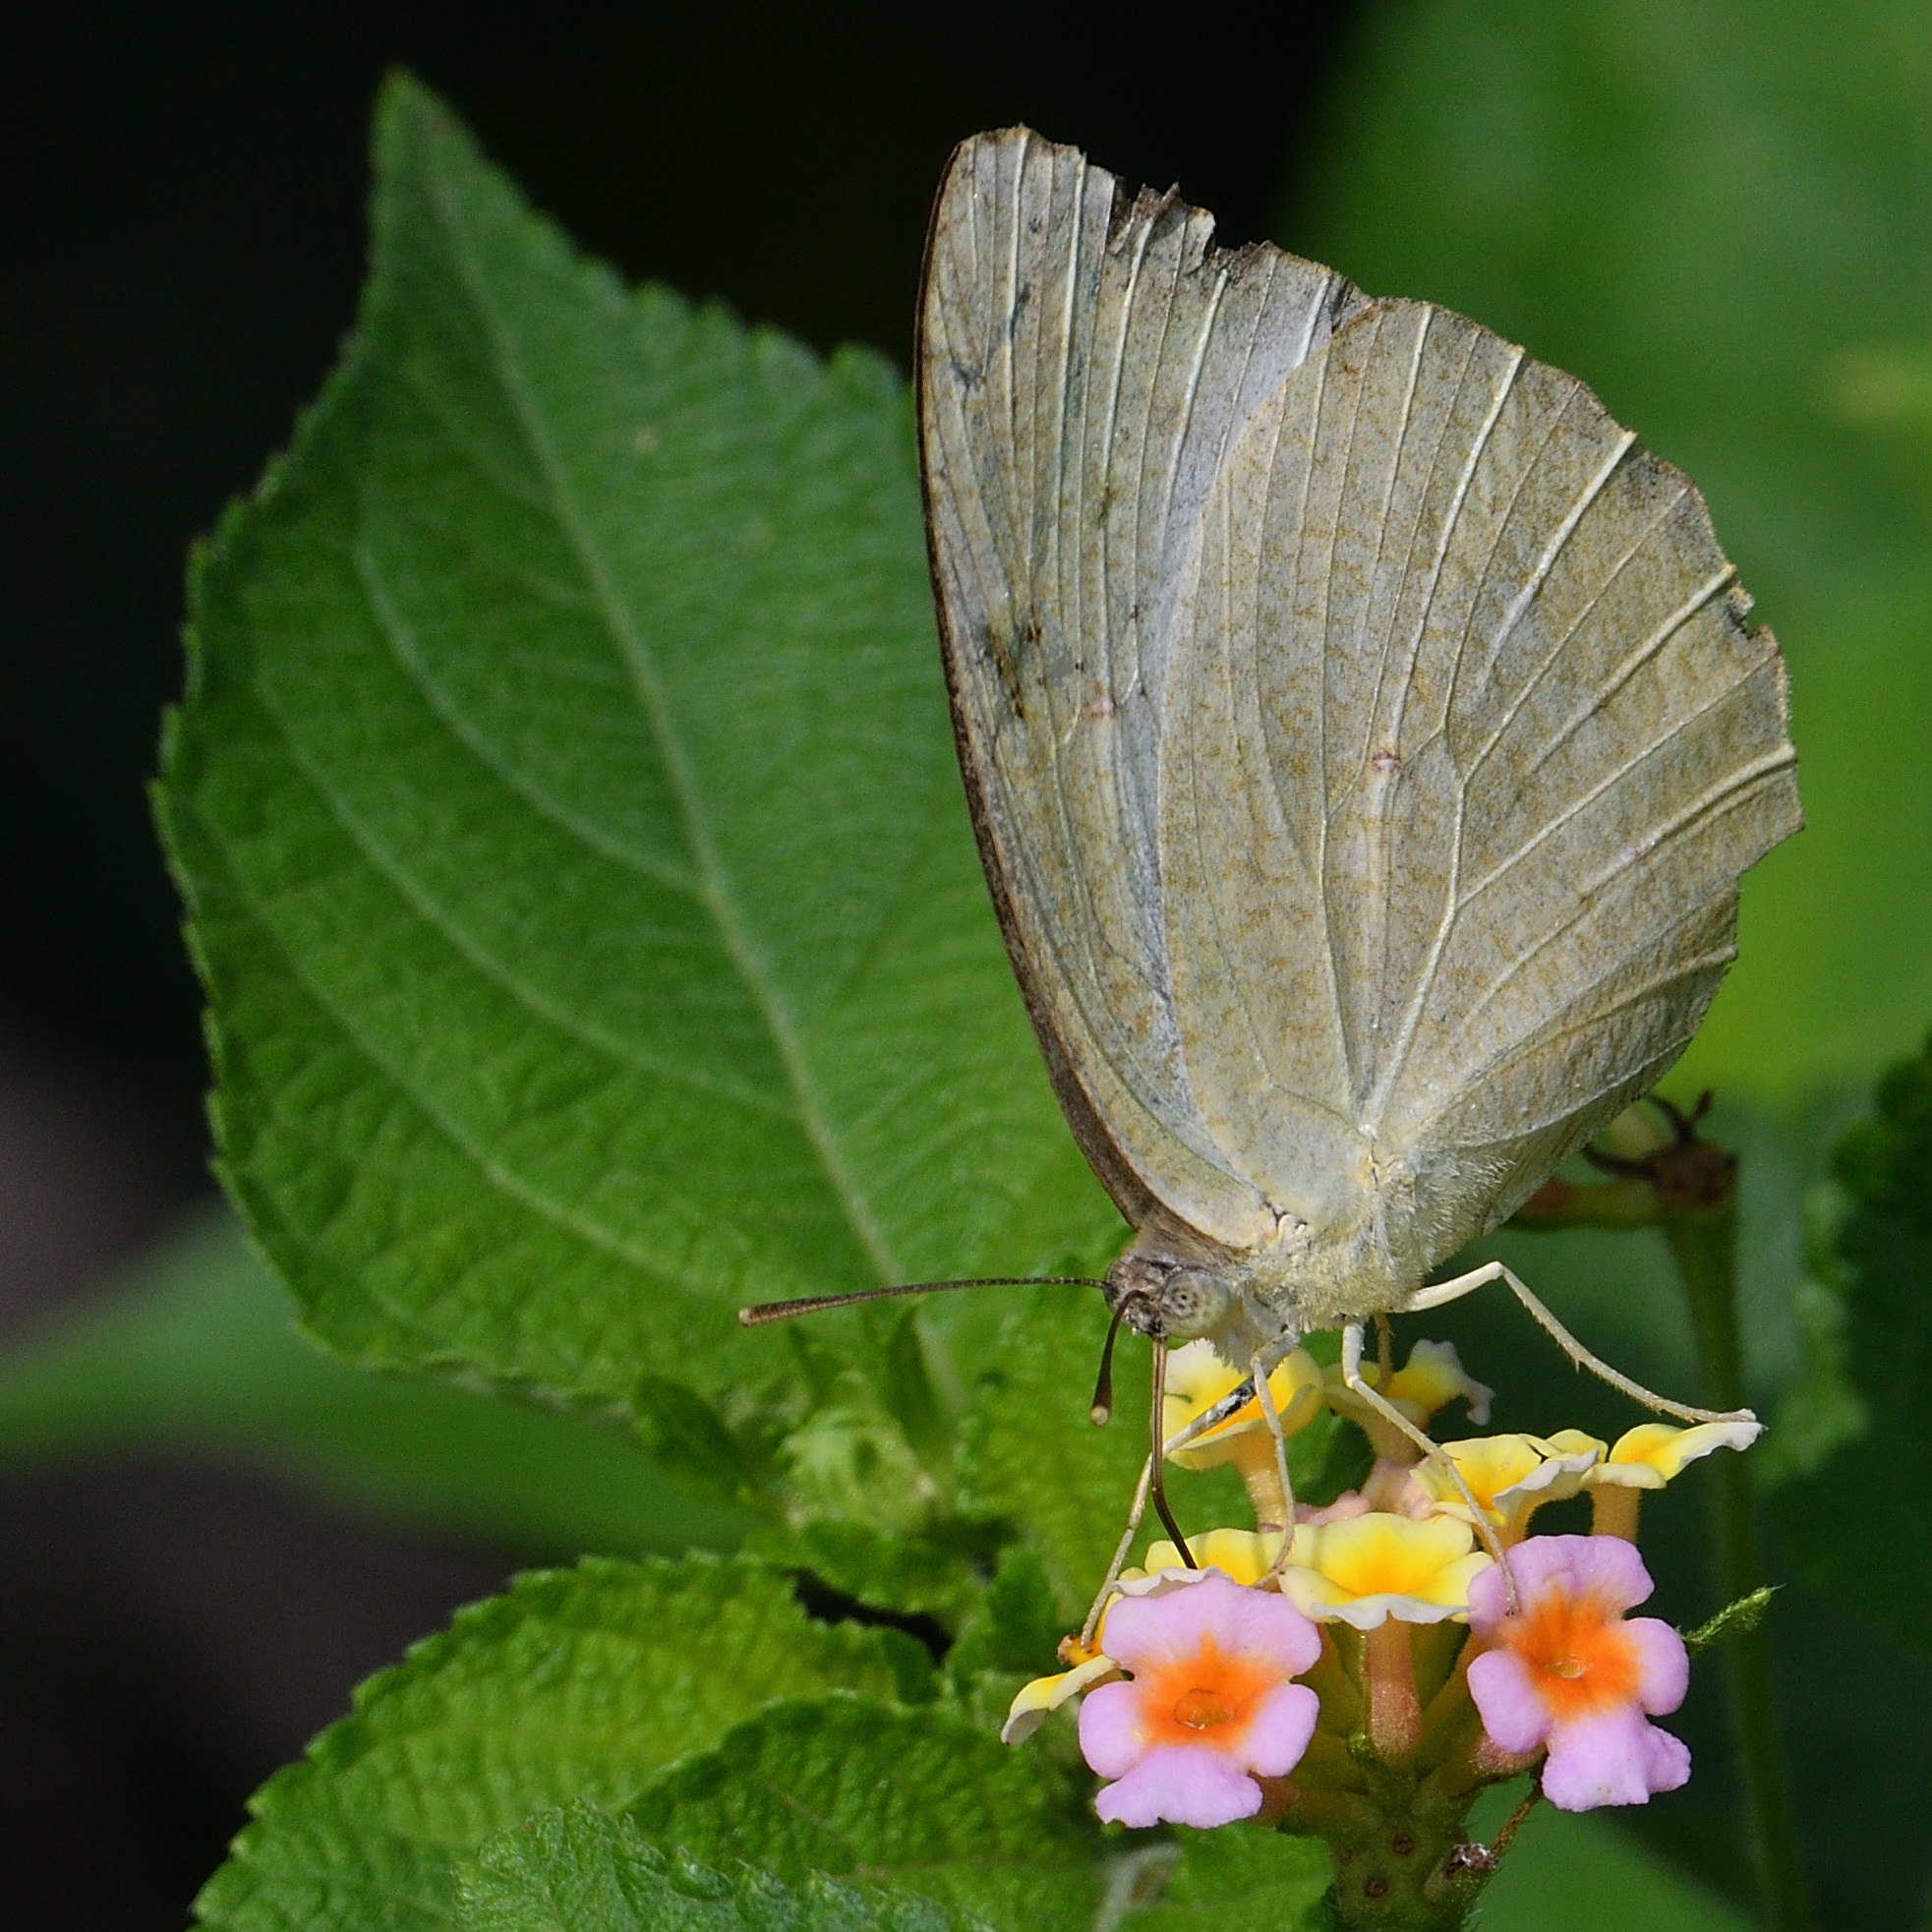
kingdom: Animalia
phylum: Arthropoda
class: Insecta
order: Lepidoptera
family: Pieridae
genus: Catopsilia
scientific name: Catopsilia pyranthe
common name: Mottled emigrant
